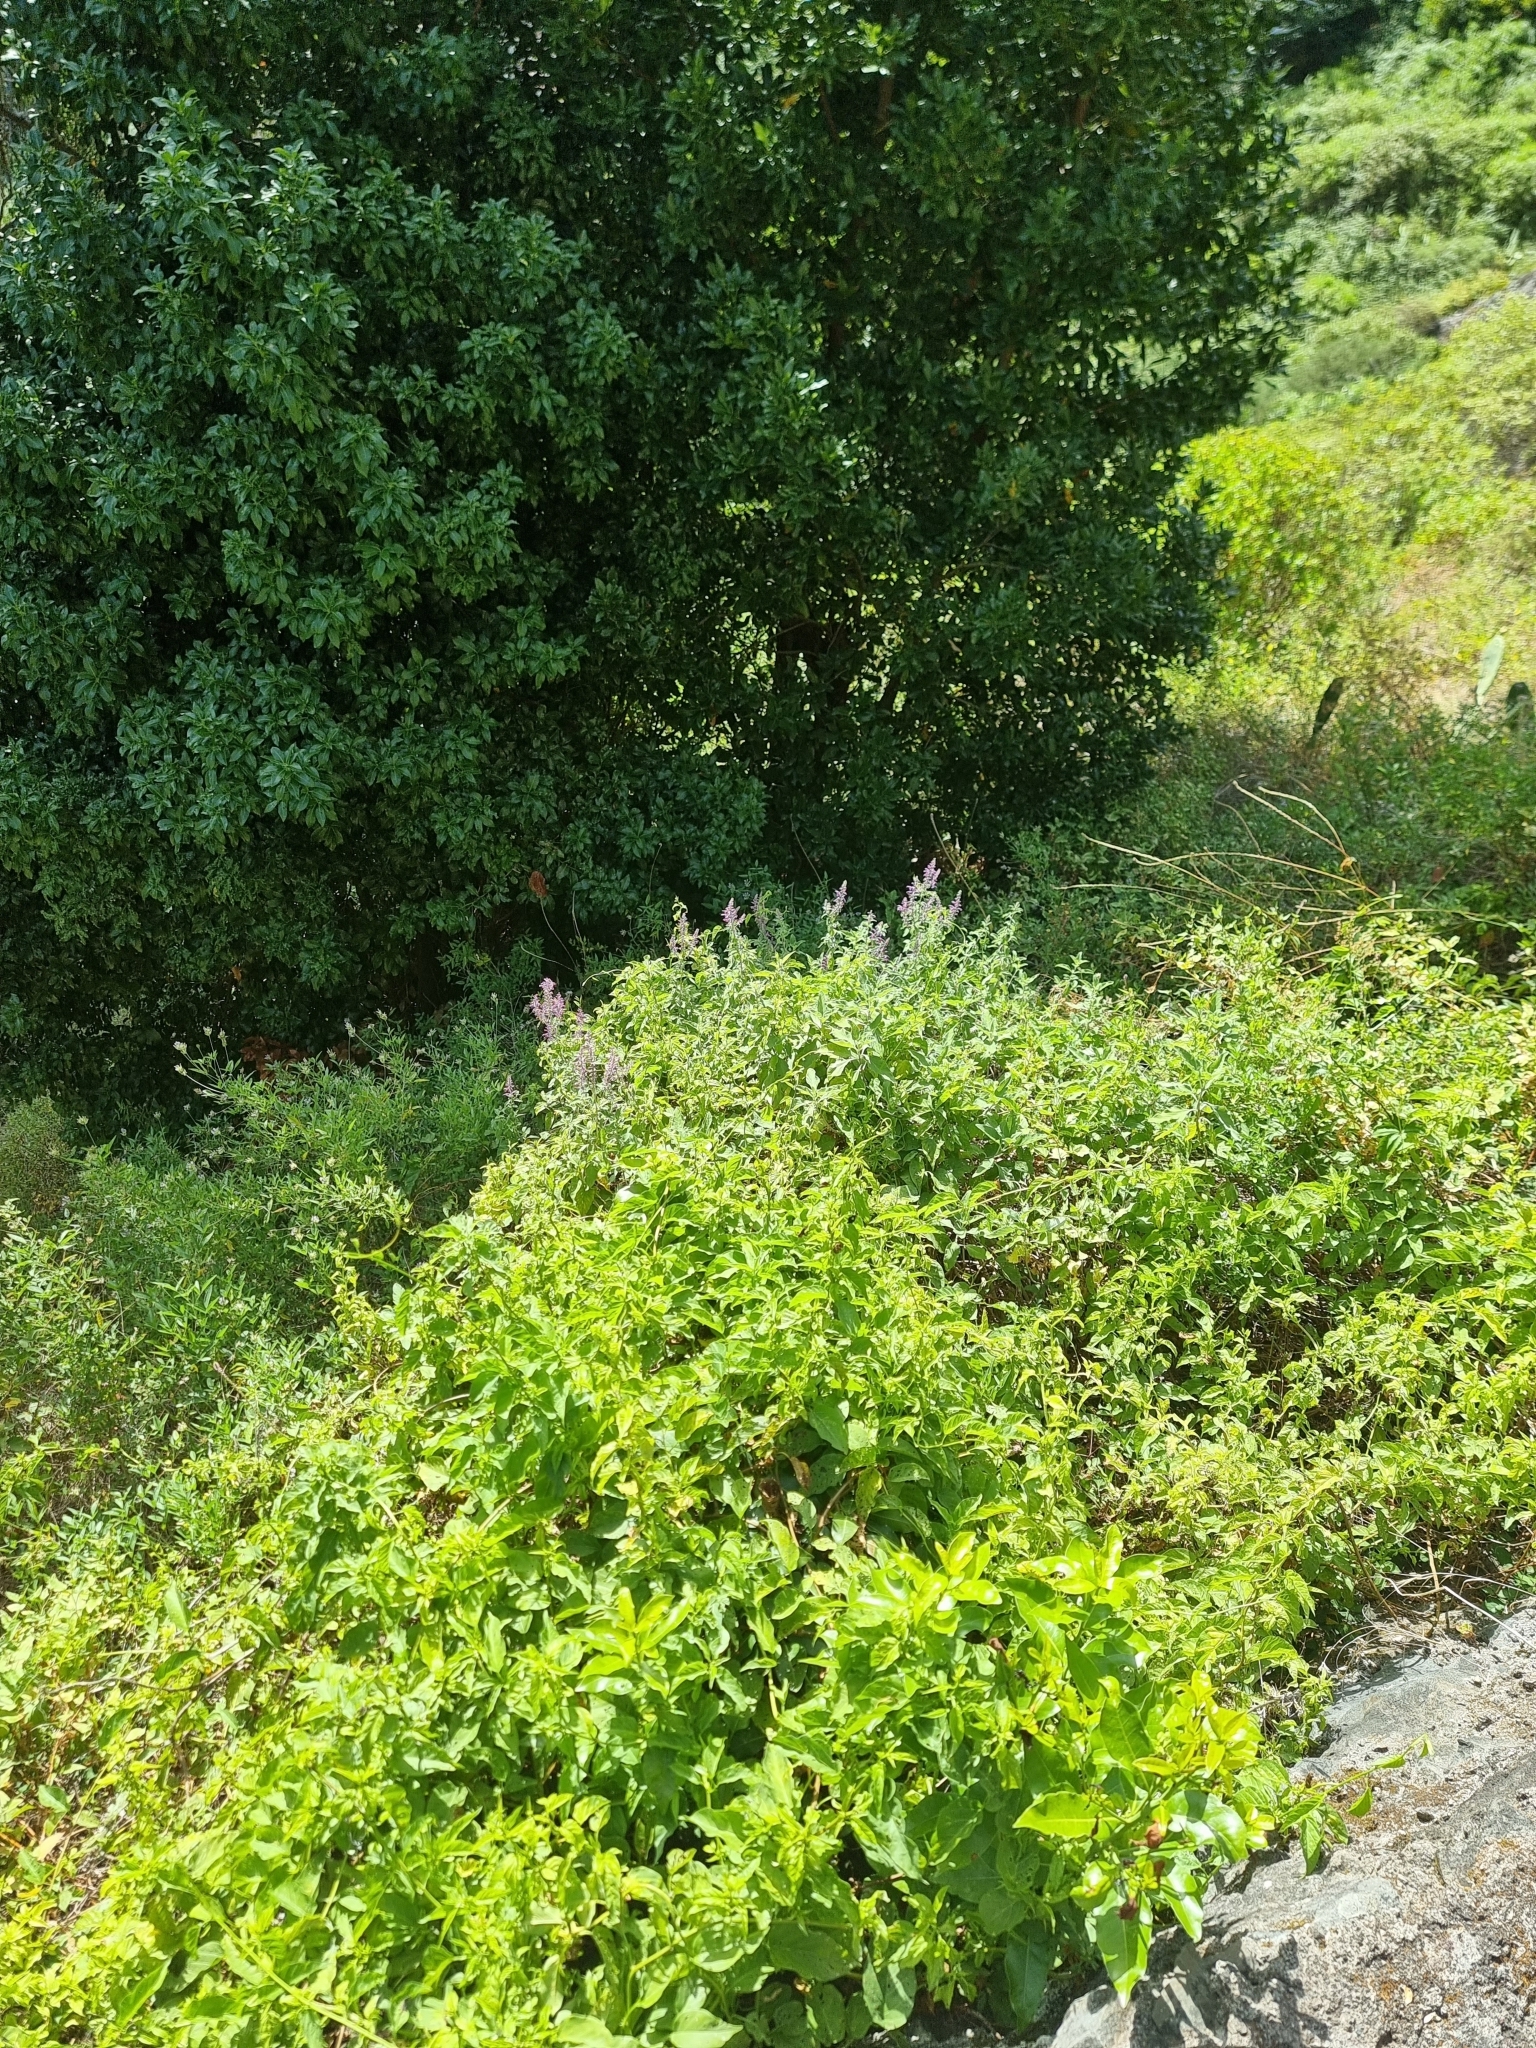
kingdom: Plantae
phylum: Tracheophyta
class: Magnoliopsida
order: Lamiales
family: Lamiaceae
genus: Teucrium
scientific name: Teucrium betonicum
